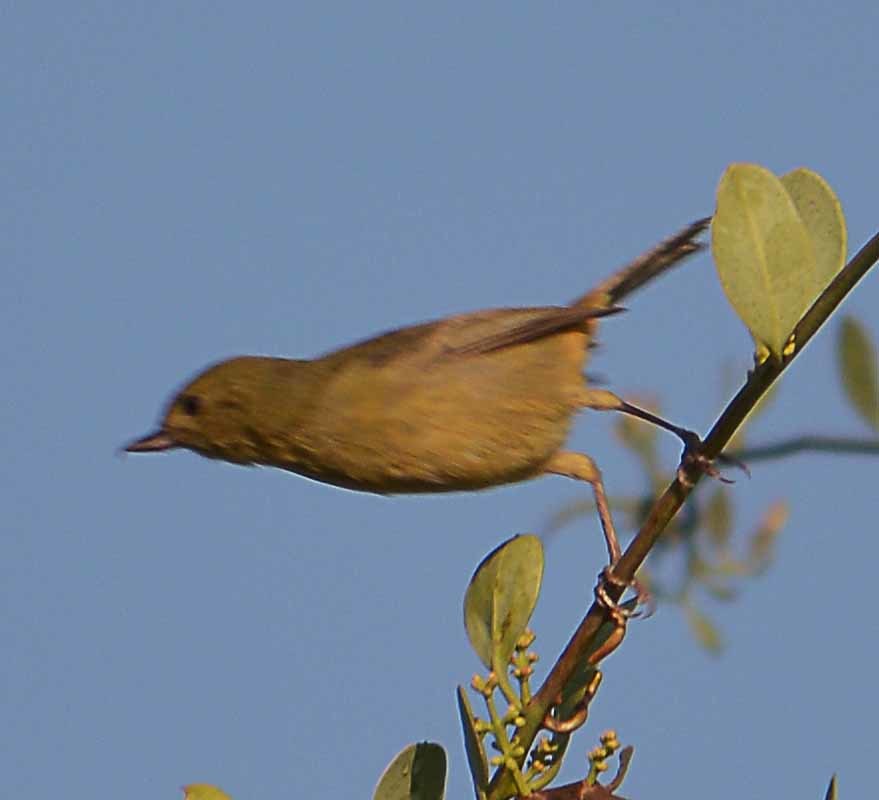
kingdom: Animalia
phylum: Chordata
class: Aves
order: Passeriformes
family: Thraupidae
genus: Diglossa
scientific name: Diglossa baritula
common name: Cinnamon-bellied flowerpiercer
